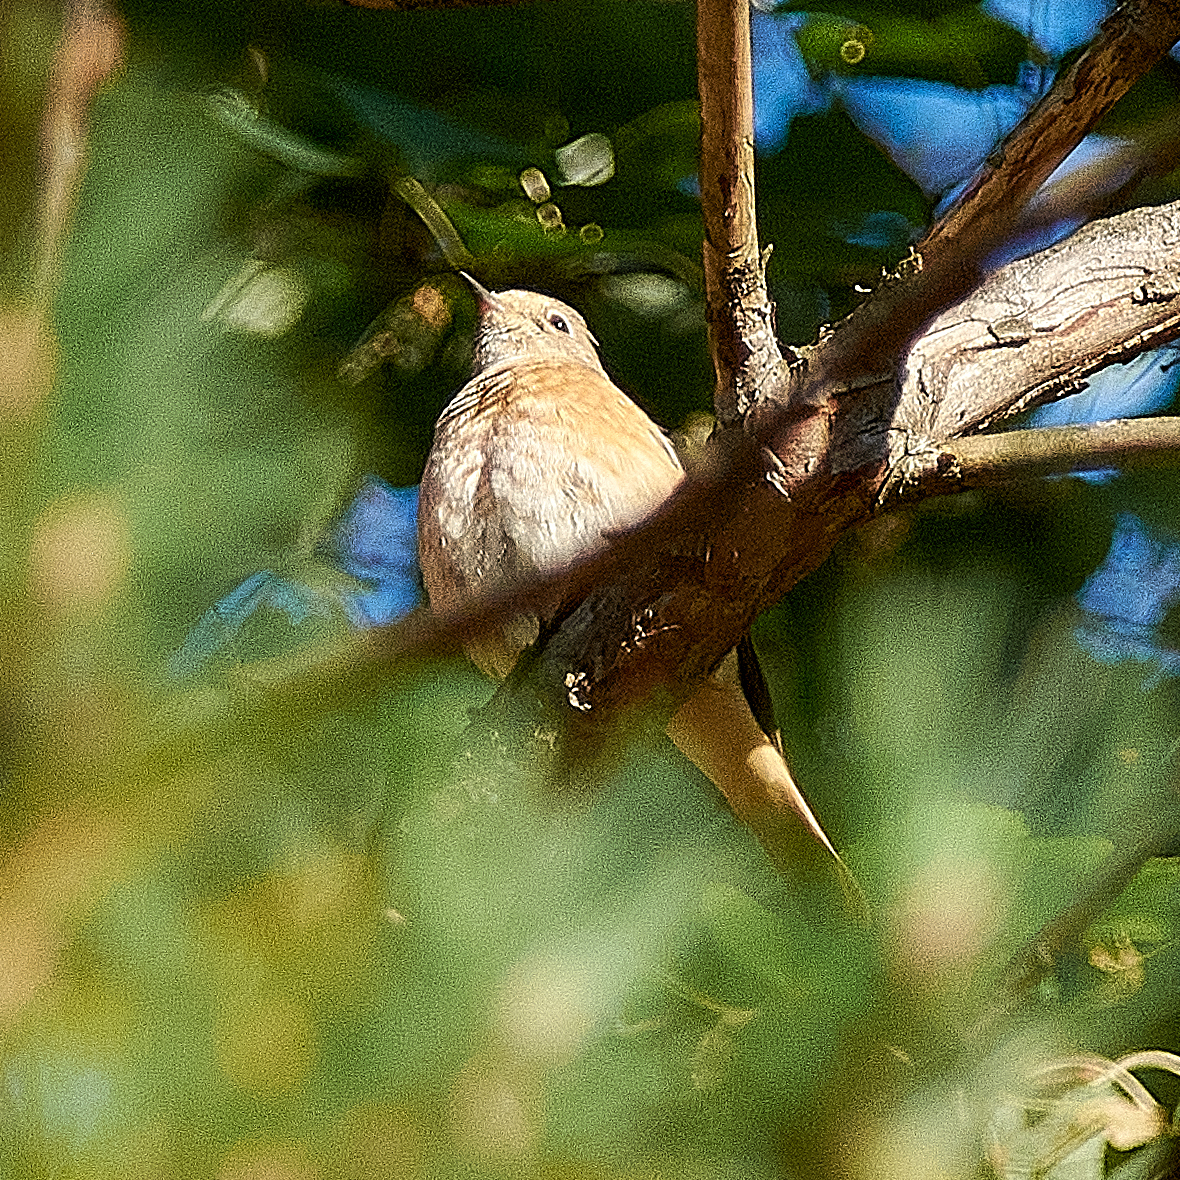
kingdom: Animalia
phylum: Chordata
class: Aves
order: Passeriformes
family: Muscicapidae
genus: Phoenicurus
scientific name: Phoenicurus phoenicurus
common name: Common redstart
